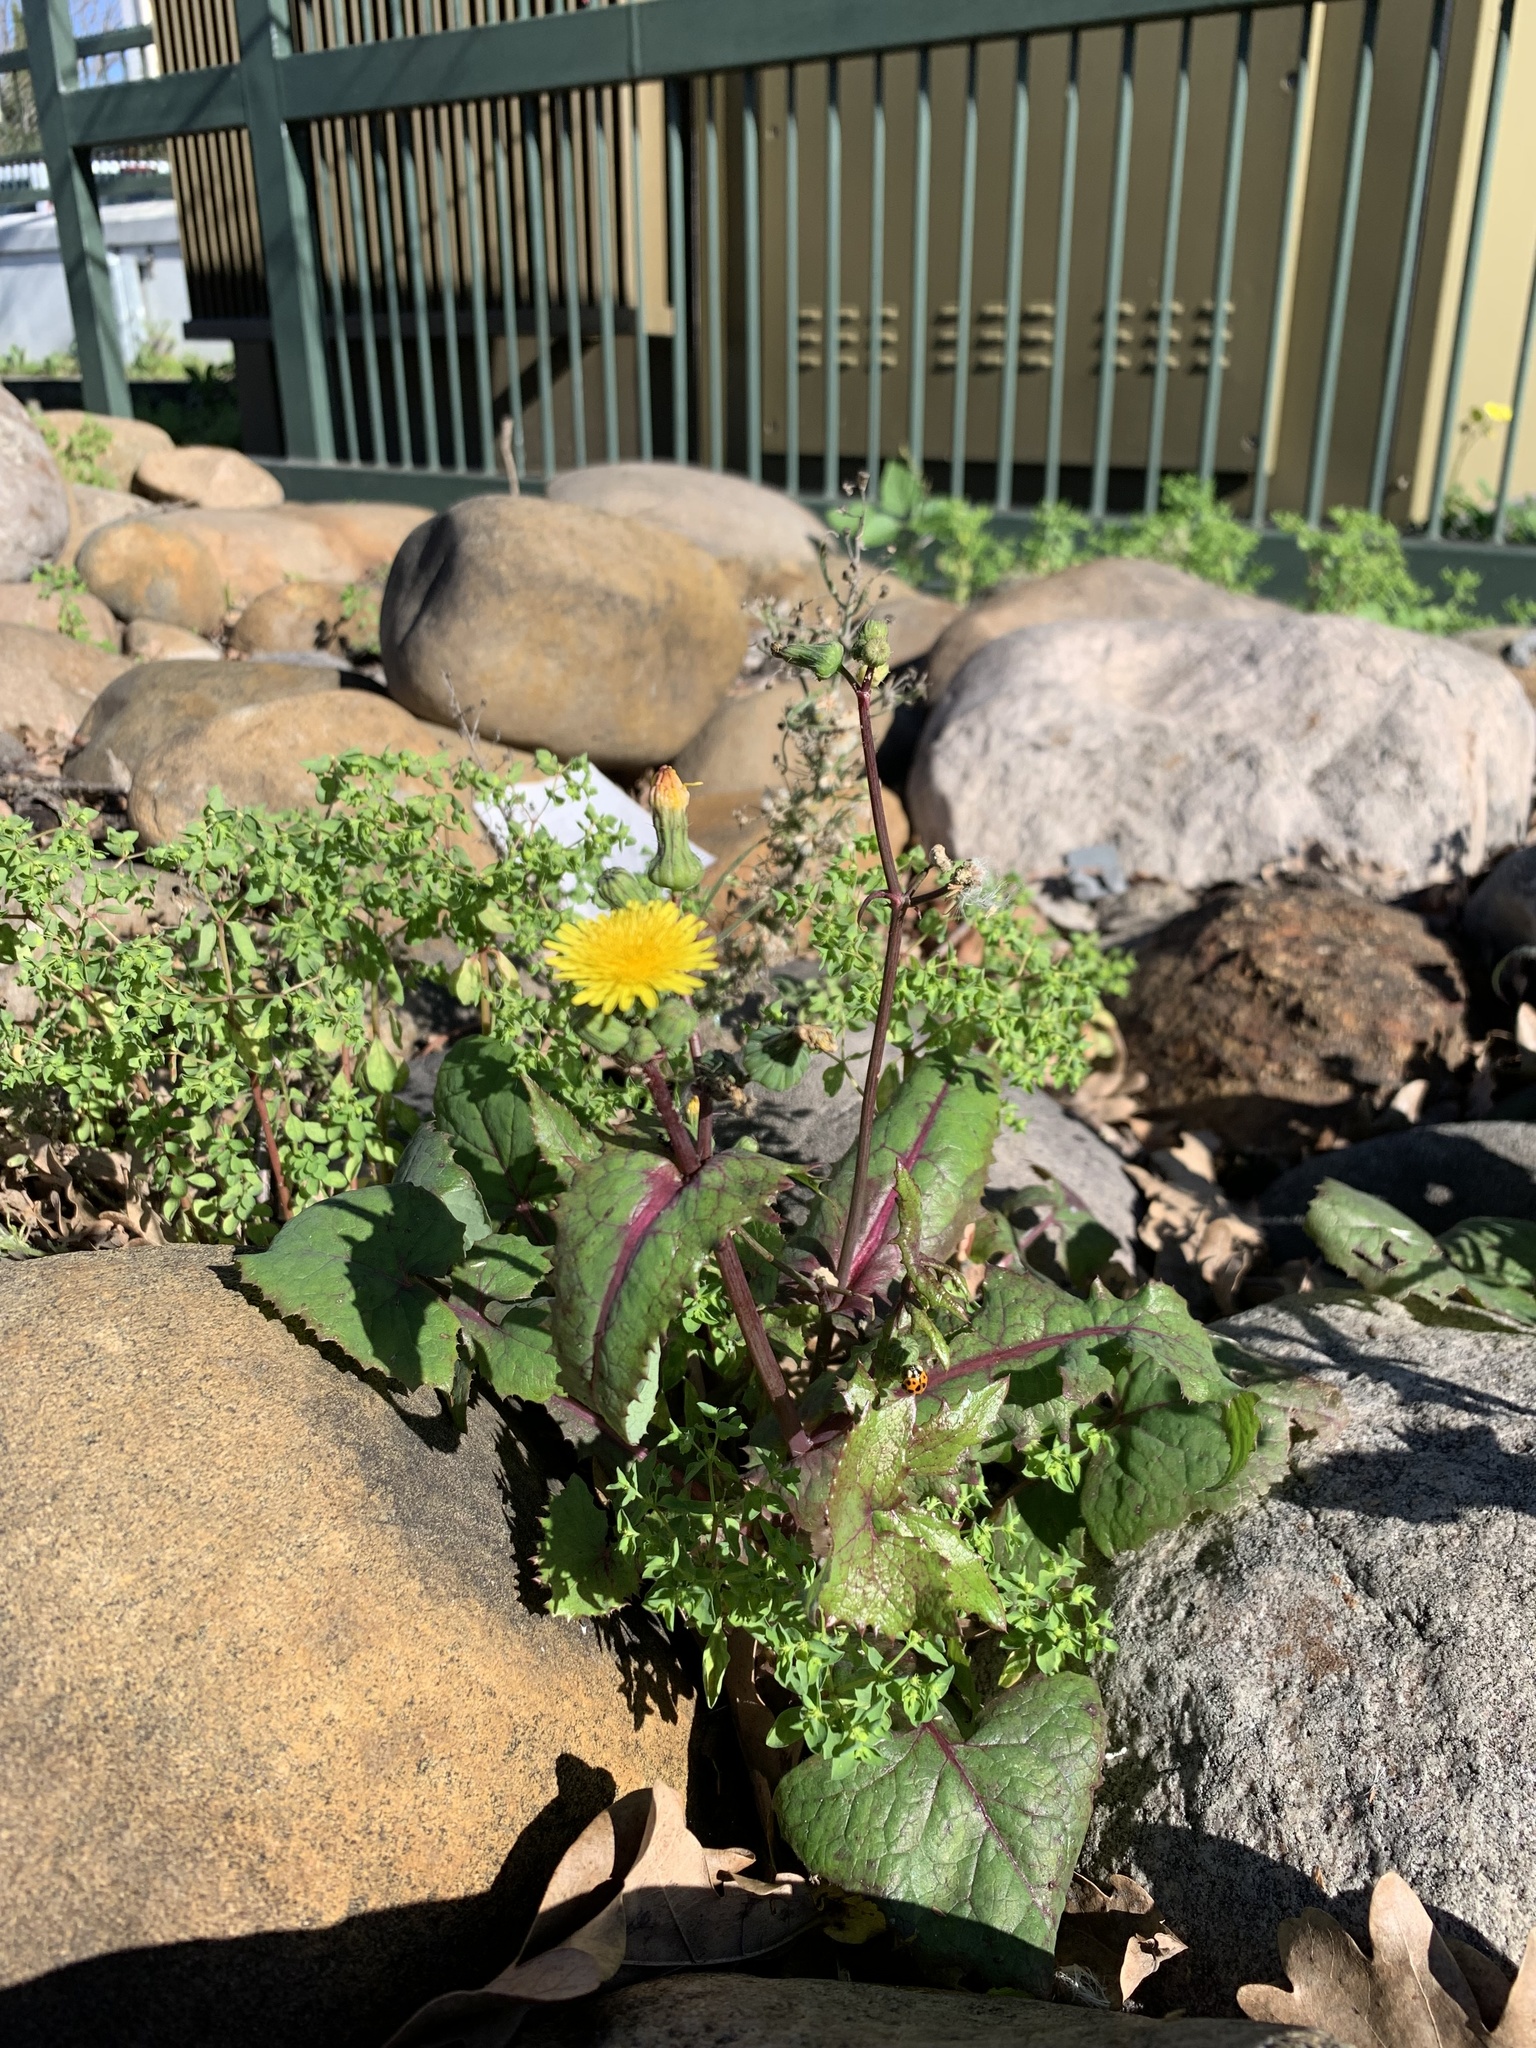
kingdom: Plantae
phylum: Tracheophyta
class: Magnoliopsida
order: Asterales
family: Asteraceae
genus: Sonchus
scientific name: Sonchus oleraceus
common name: Common sowthistle
